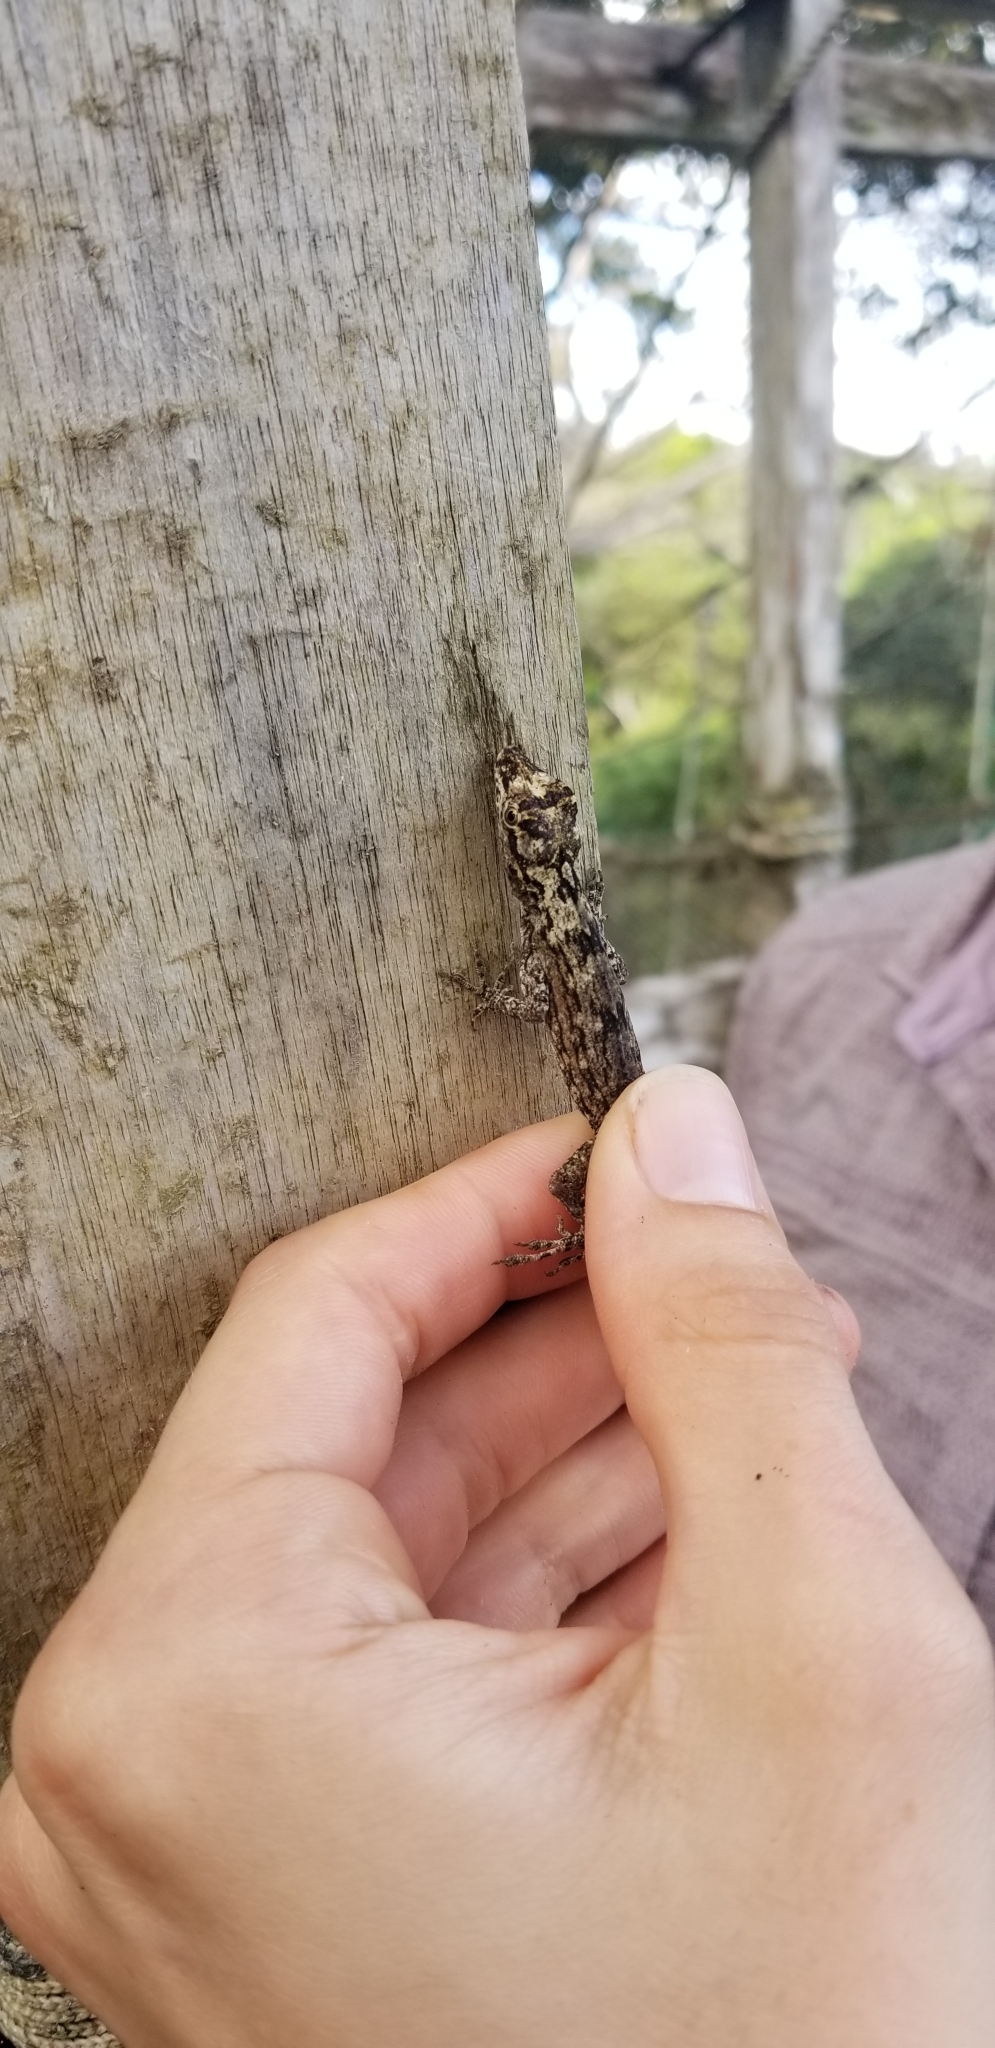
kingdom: Animalia
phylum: Chordata
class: Squamata
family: Dactyloidae
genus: Anolis
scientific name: Anolis ortonii
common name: Bark anole
